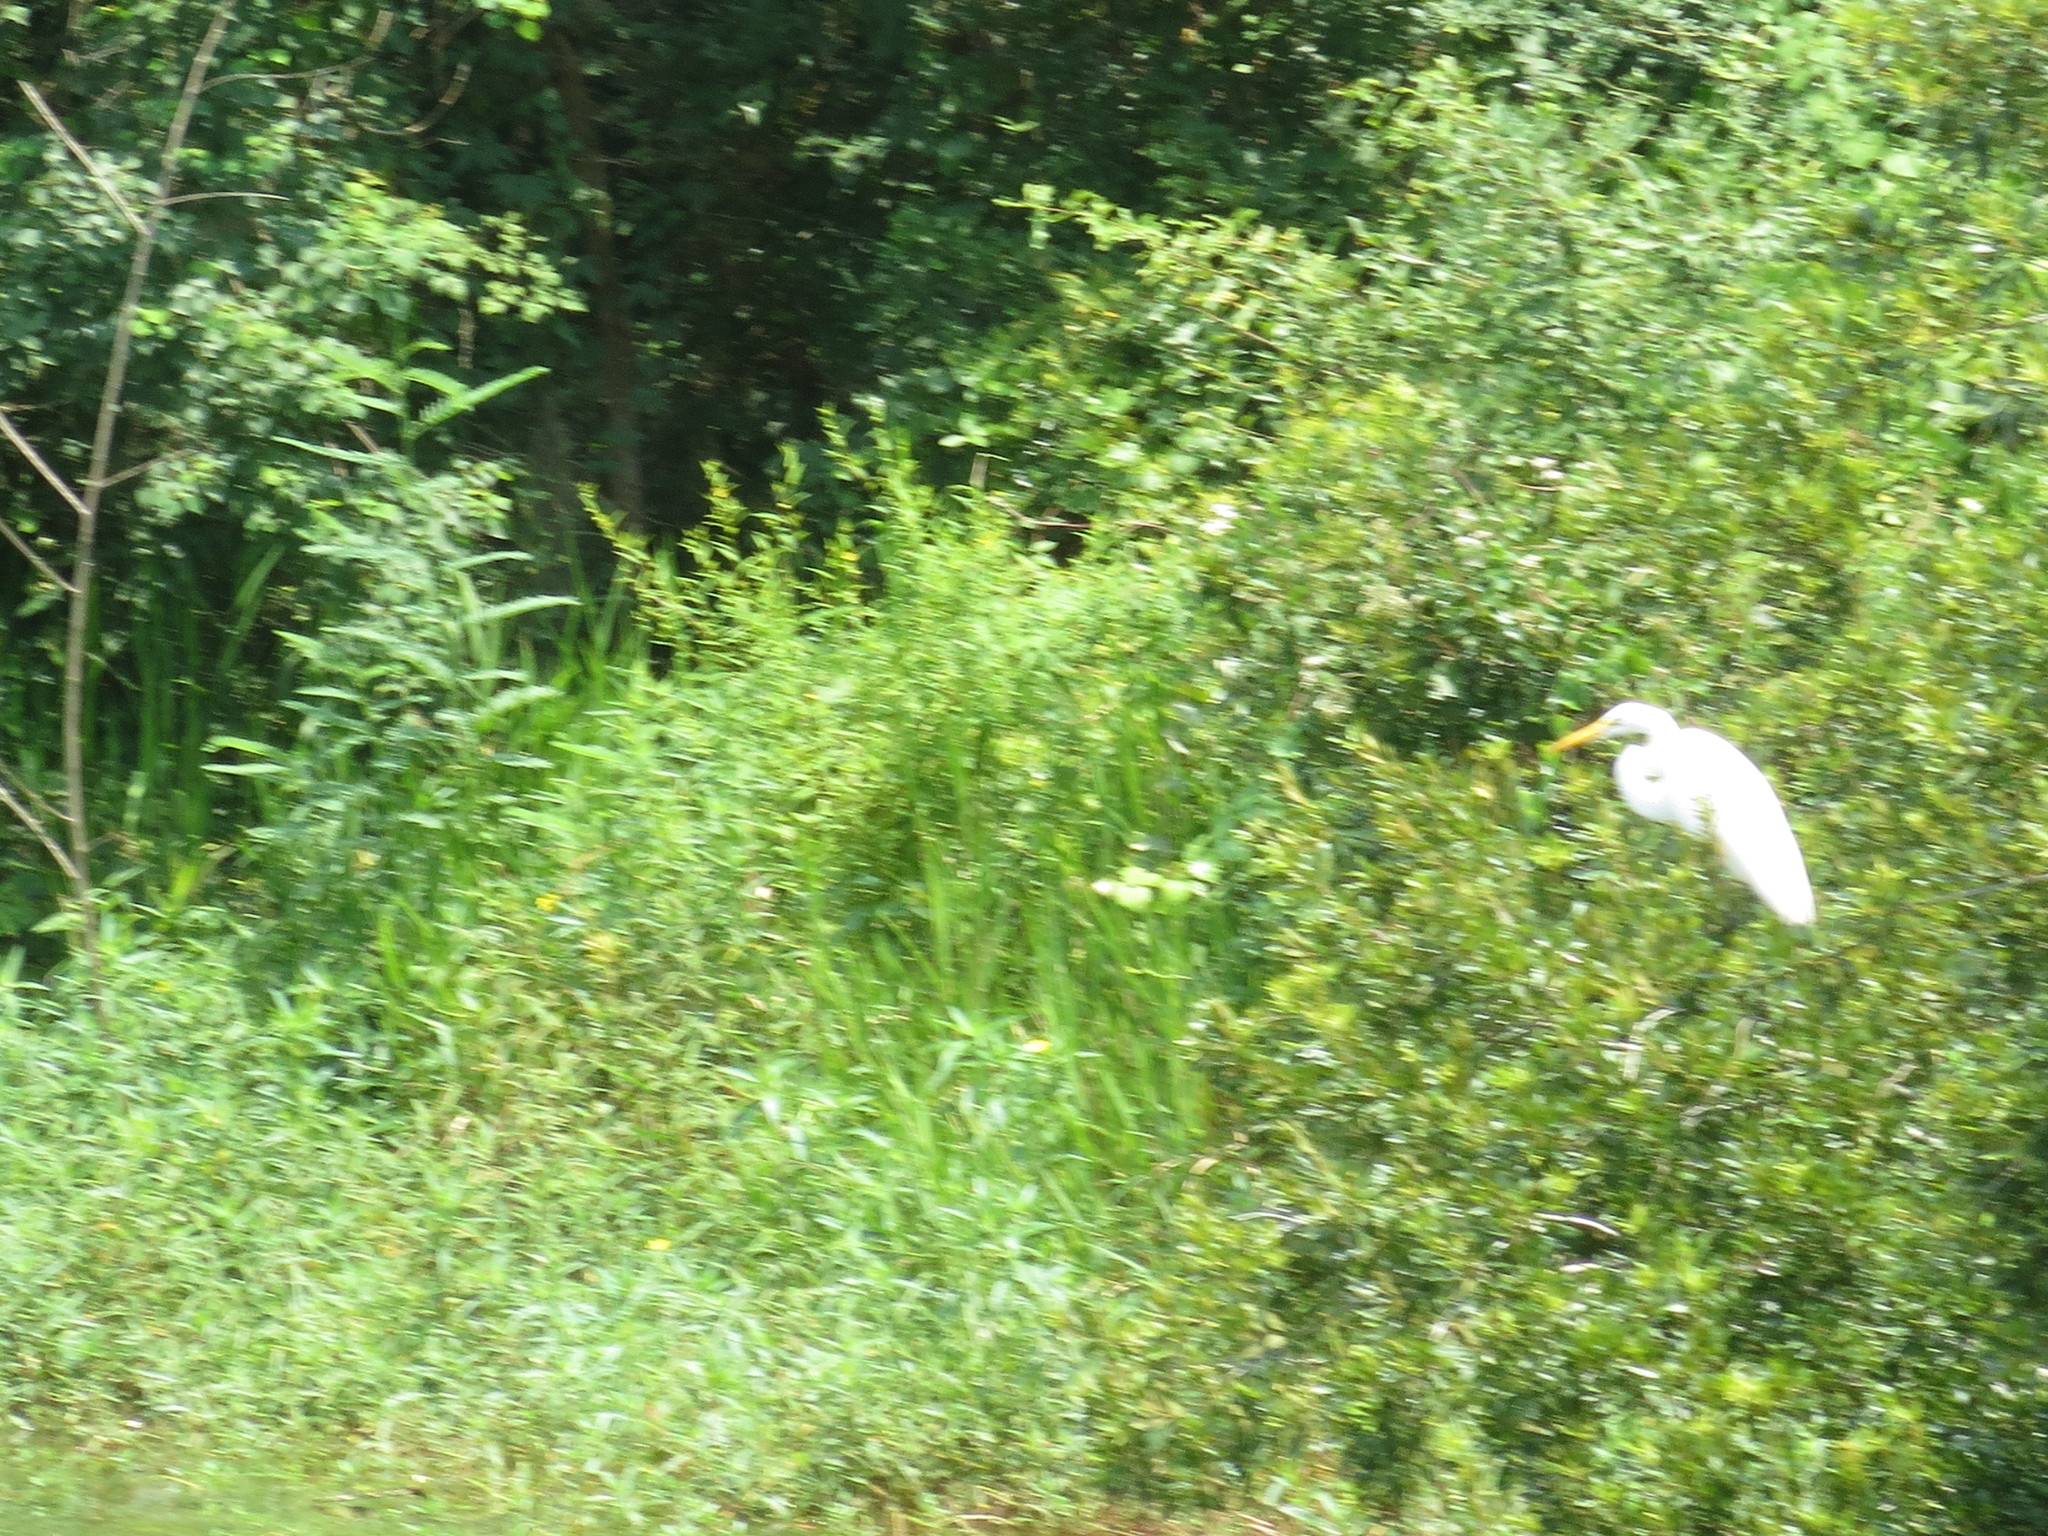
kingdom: Animalia
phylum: Chordata
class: Aves
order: Pelecaniformes
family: Ardeidae
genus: Ardea
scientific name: Ardea alba
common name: Great egret
